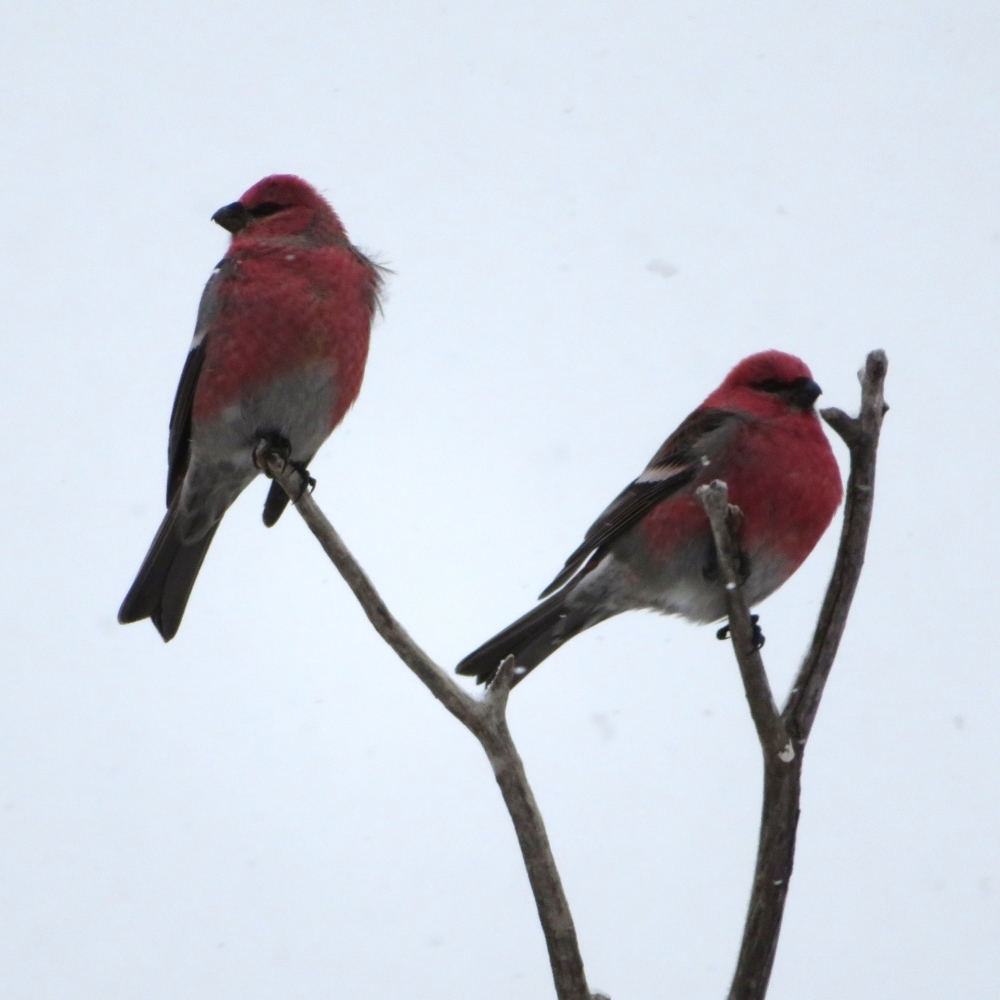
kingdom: Animalia
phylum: Chordata
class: Aves
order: Passeriformes
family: Fringillidae
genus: Pinicola
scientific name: Pinicola enucleator
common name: Pine grosbeak
